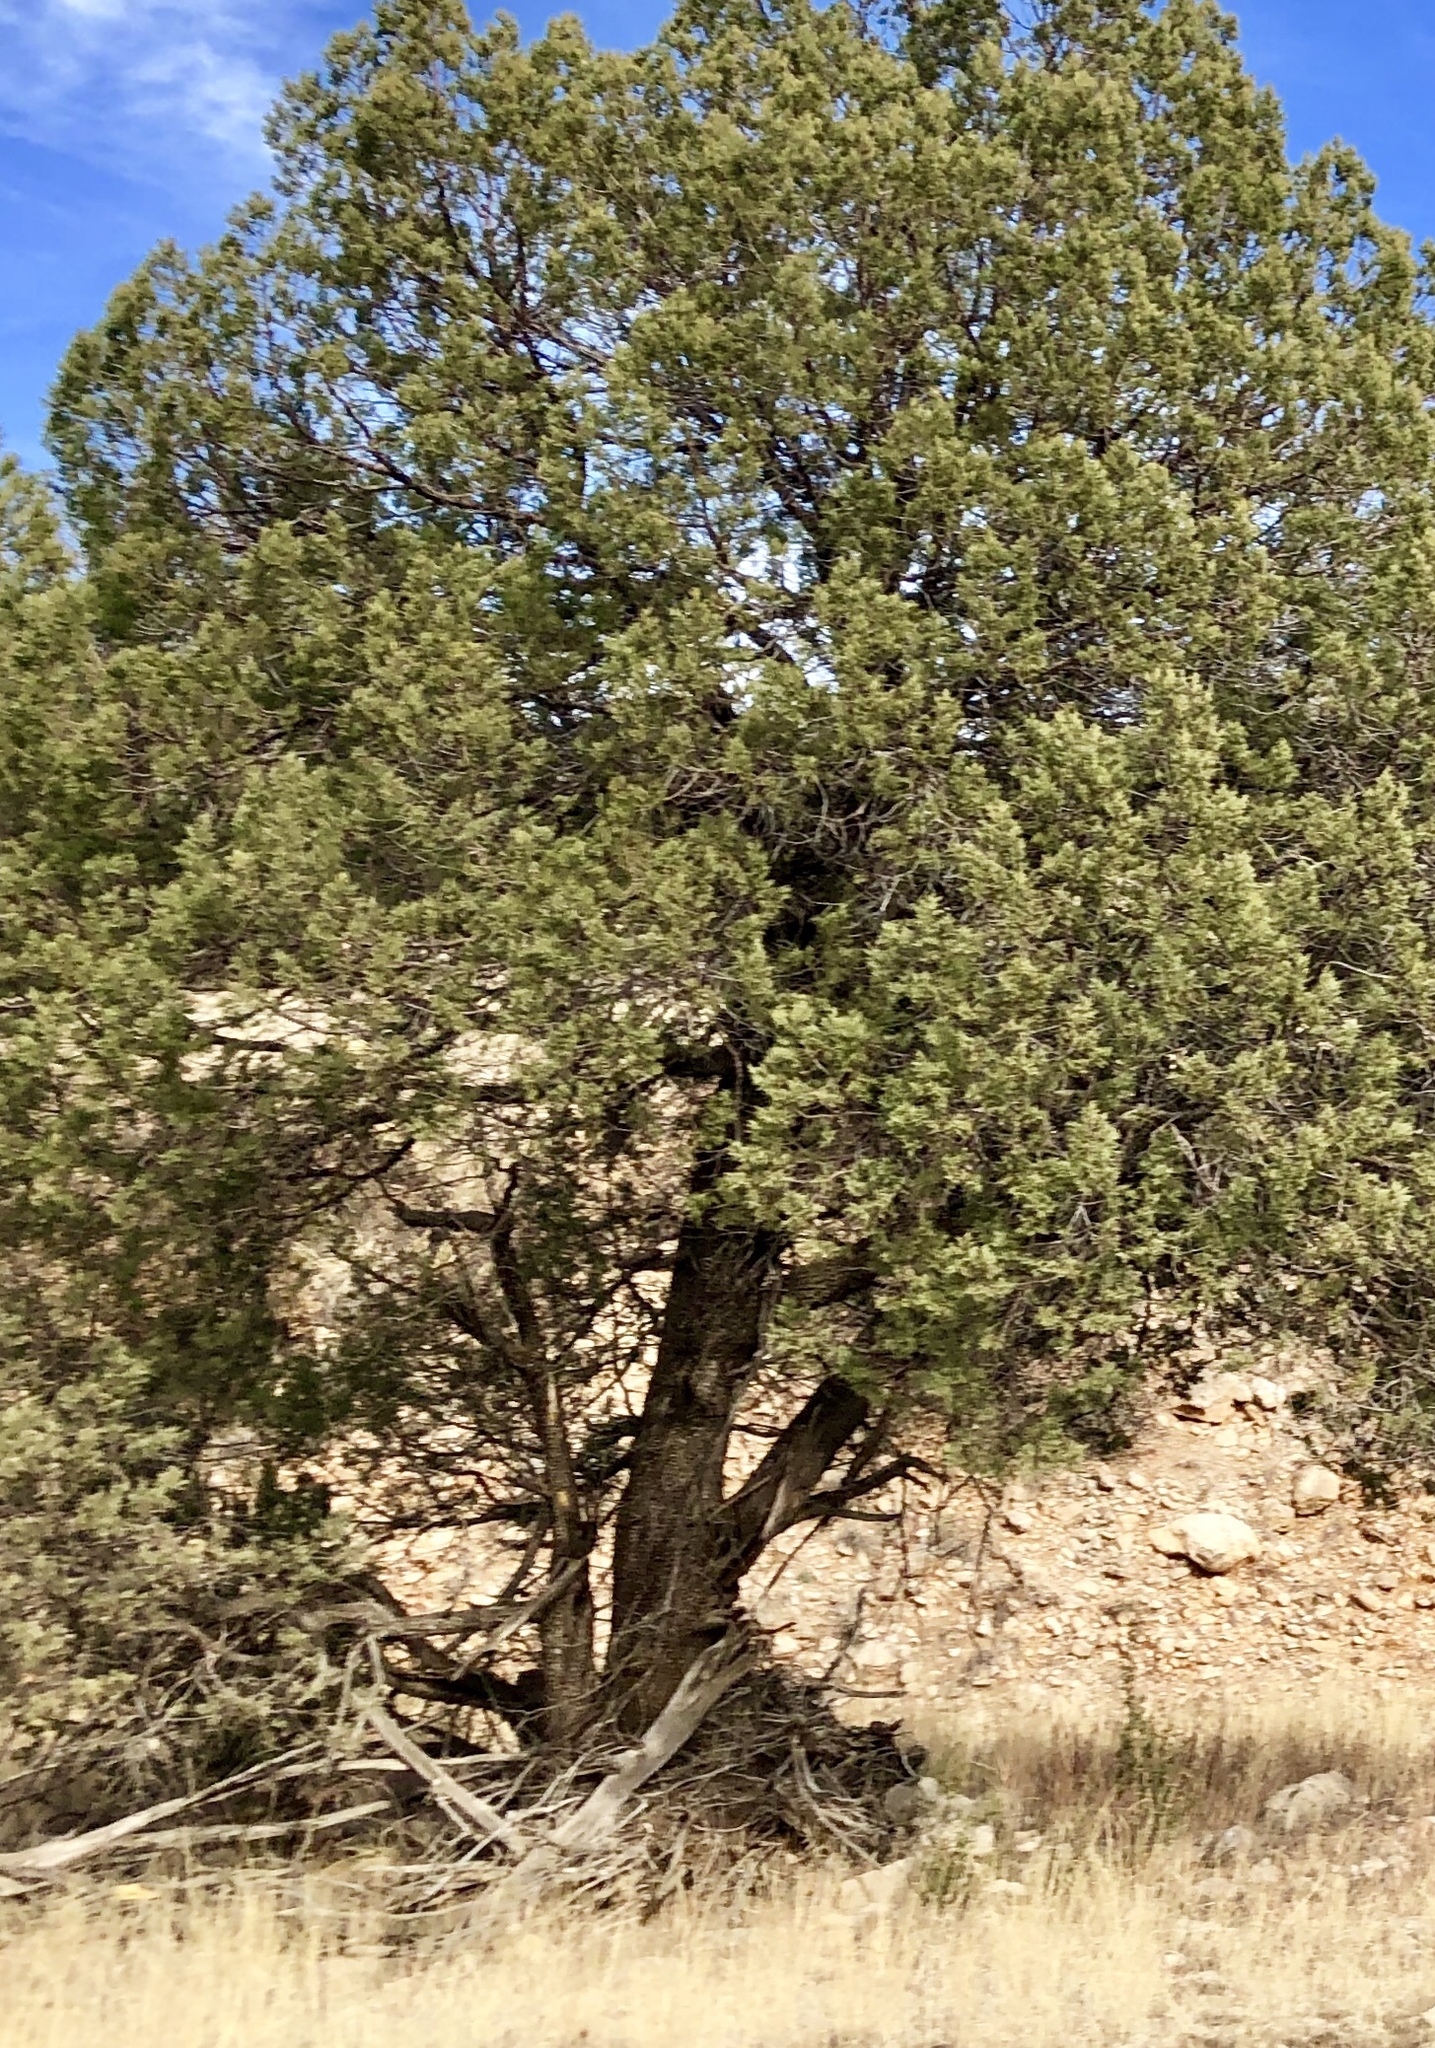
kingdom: Plantae
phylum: Tracheophyta
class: Pinopsida
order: Pinales
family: Cupressaceae
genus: Juniperus
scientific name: Juniperus deppeana
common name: Alligator juniper
